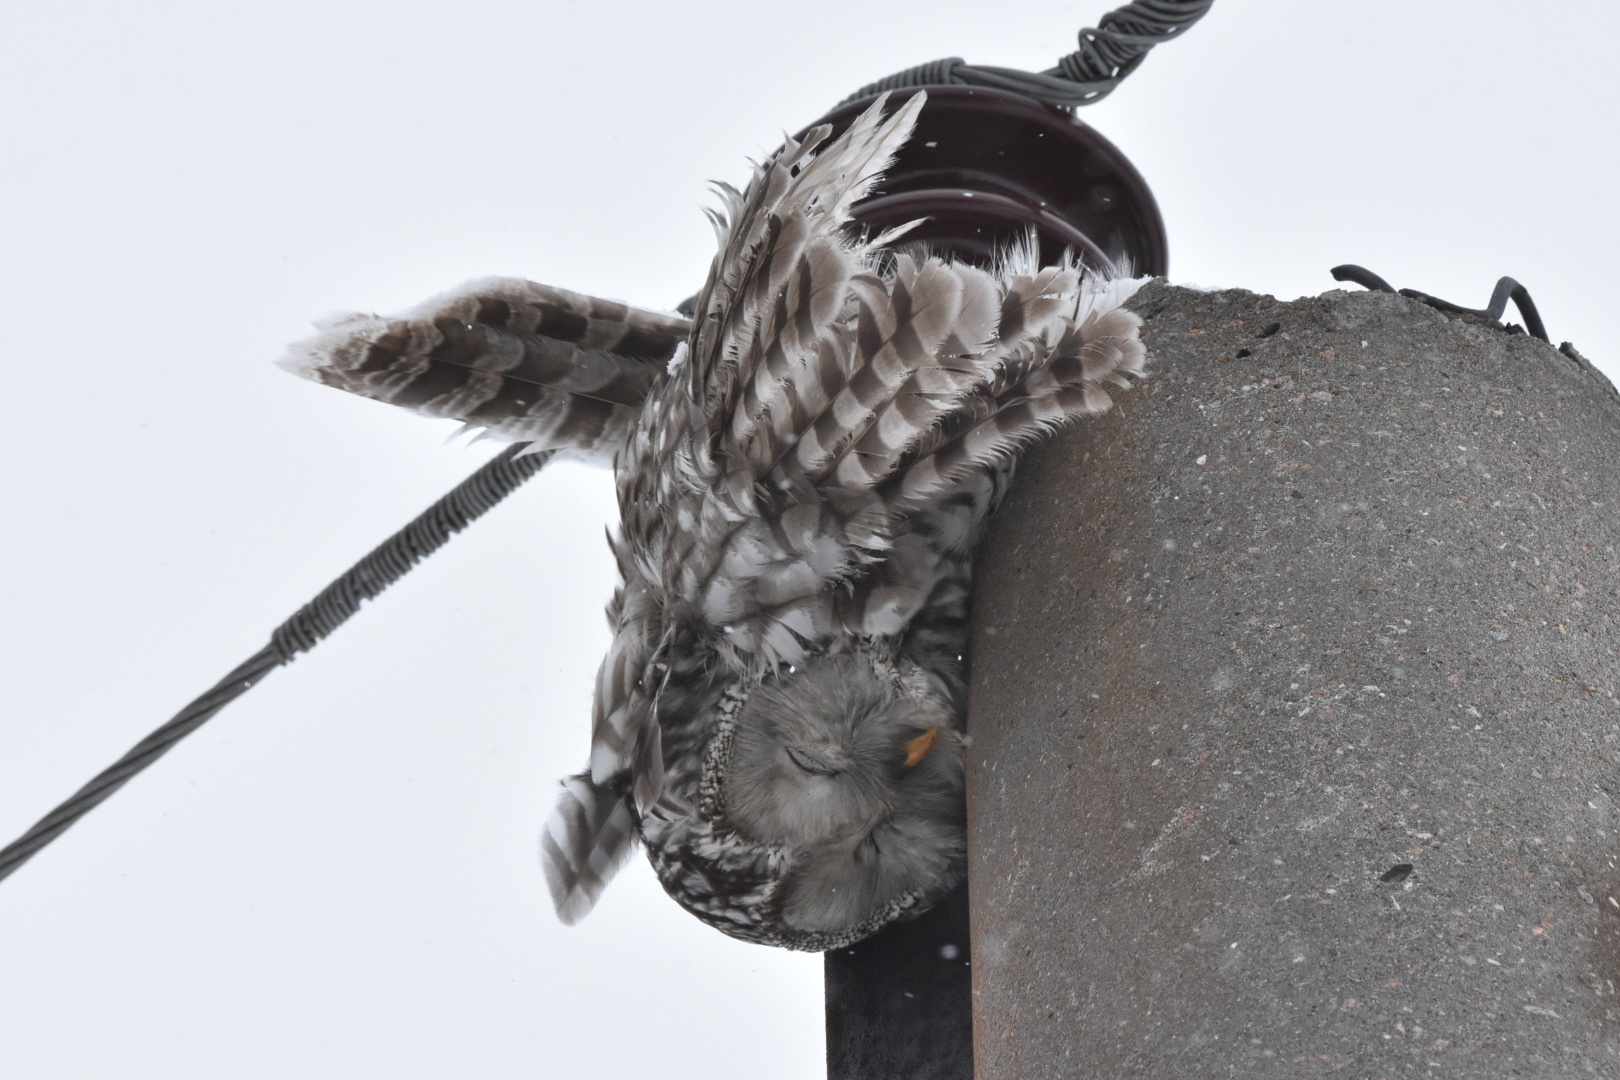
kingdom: Animalia
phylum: Chordata
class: Aves
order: Strigiformes
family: Strigidae
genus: Strix
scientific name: Strix uralensis
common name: Ural owl
